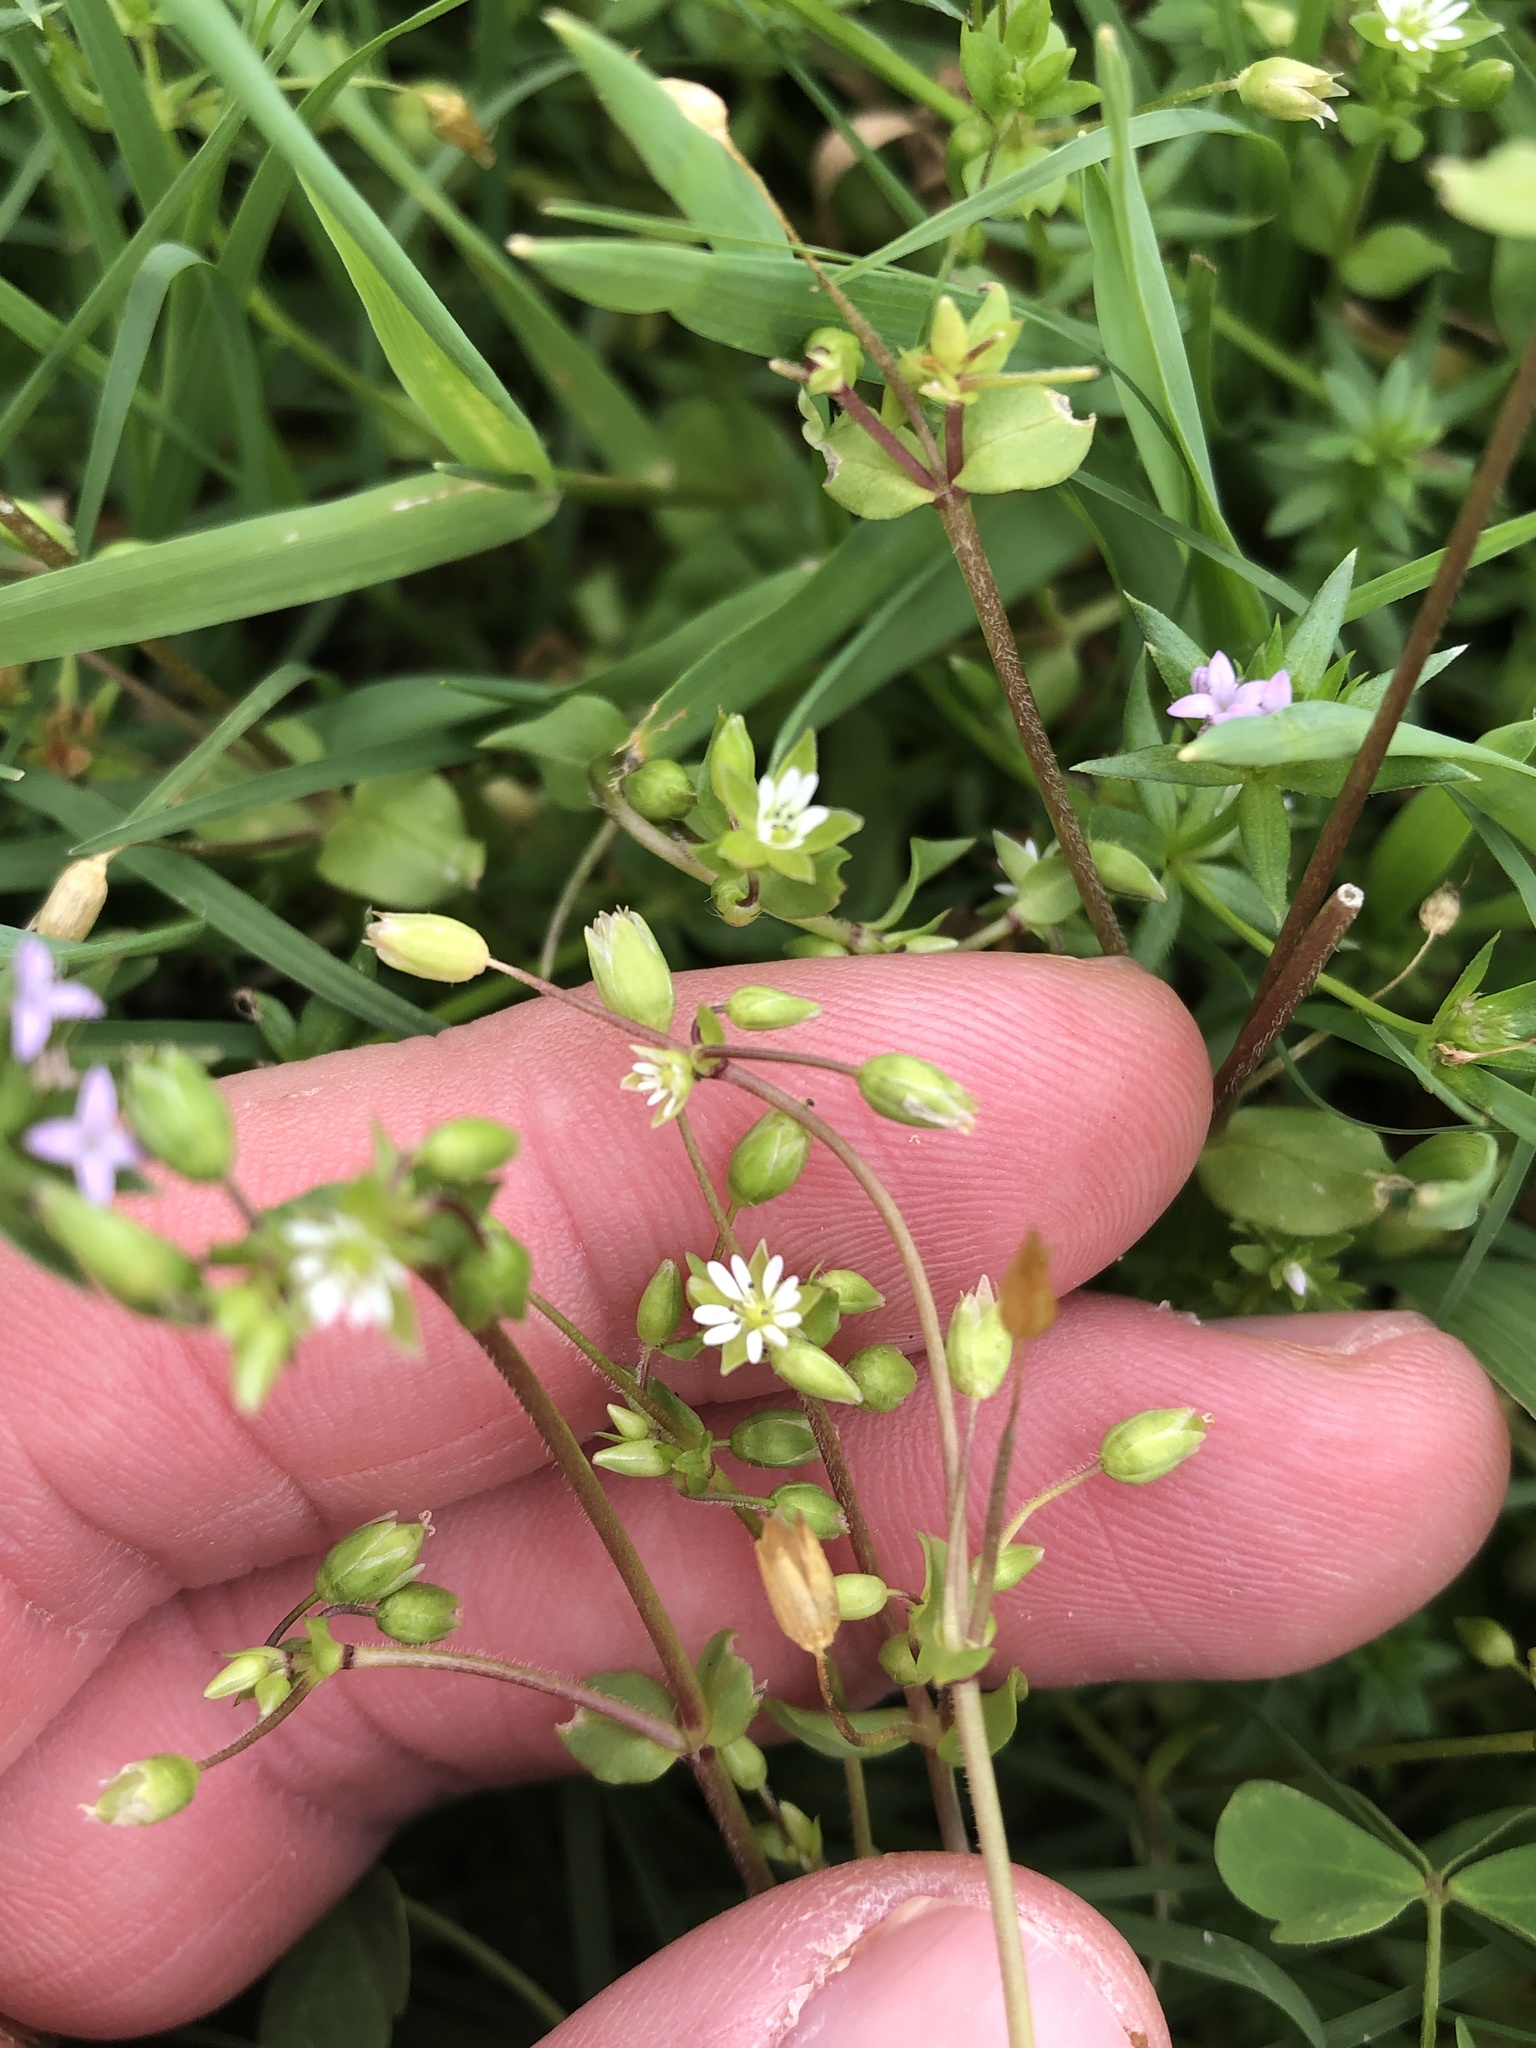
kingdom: Plantae
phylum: Tracheophyta
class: Magnoliopsida
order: Caryophyllales
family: Caryophyllaceae
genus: Stellaria
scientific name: Stellaria media
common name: Common chickweed
